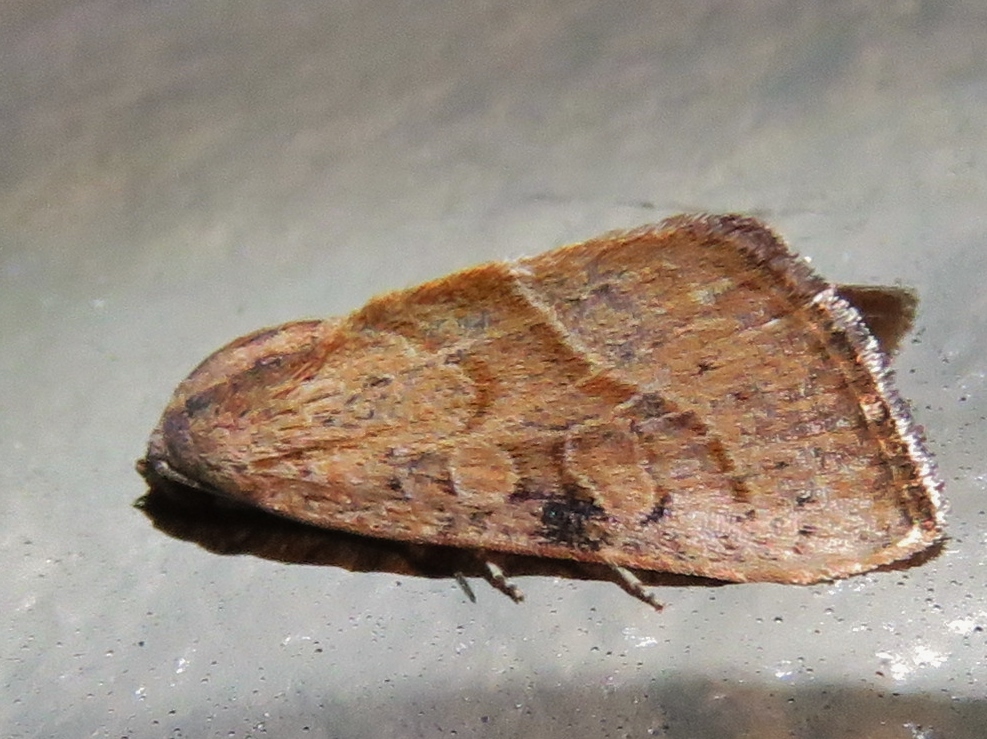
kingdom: Animalia
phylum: Arthropoda
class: Insecta
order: Lepidoptera
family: Noctuidae
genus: Galgula
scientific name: Galgula partita
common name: Wedgeling
